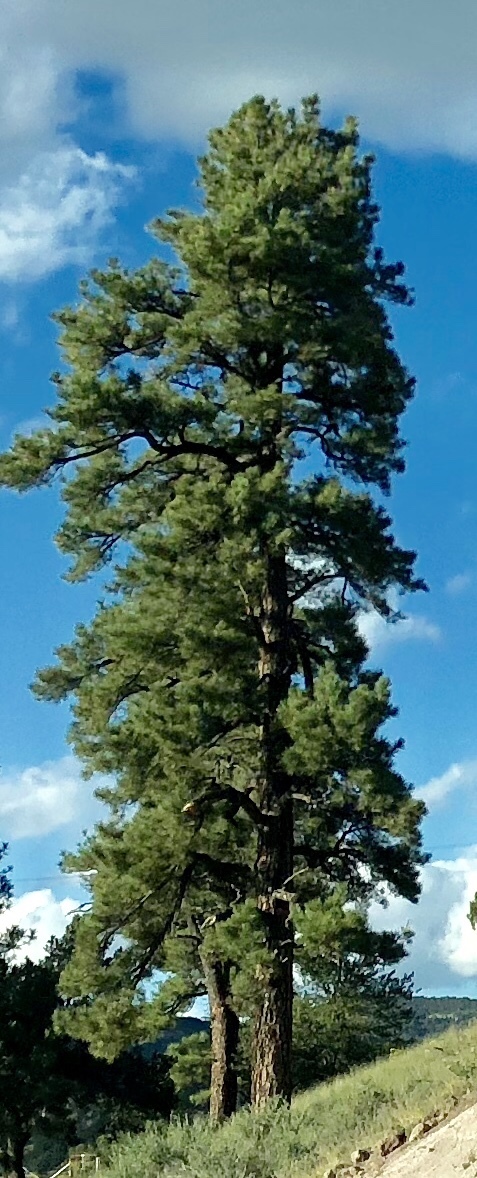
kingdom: Plantae
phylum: Tracheophyta
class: Pinopsida
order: Pinales
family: Pinaceae
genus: Pinus
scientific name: Pinus ponderosa
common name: Western yellow-pine
